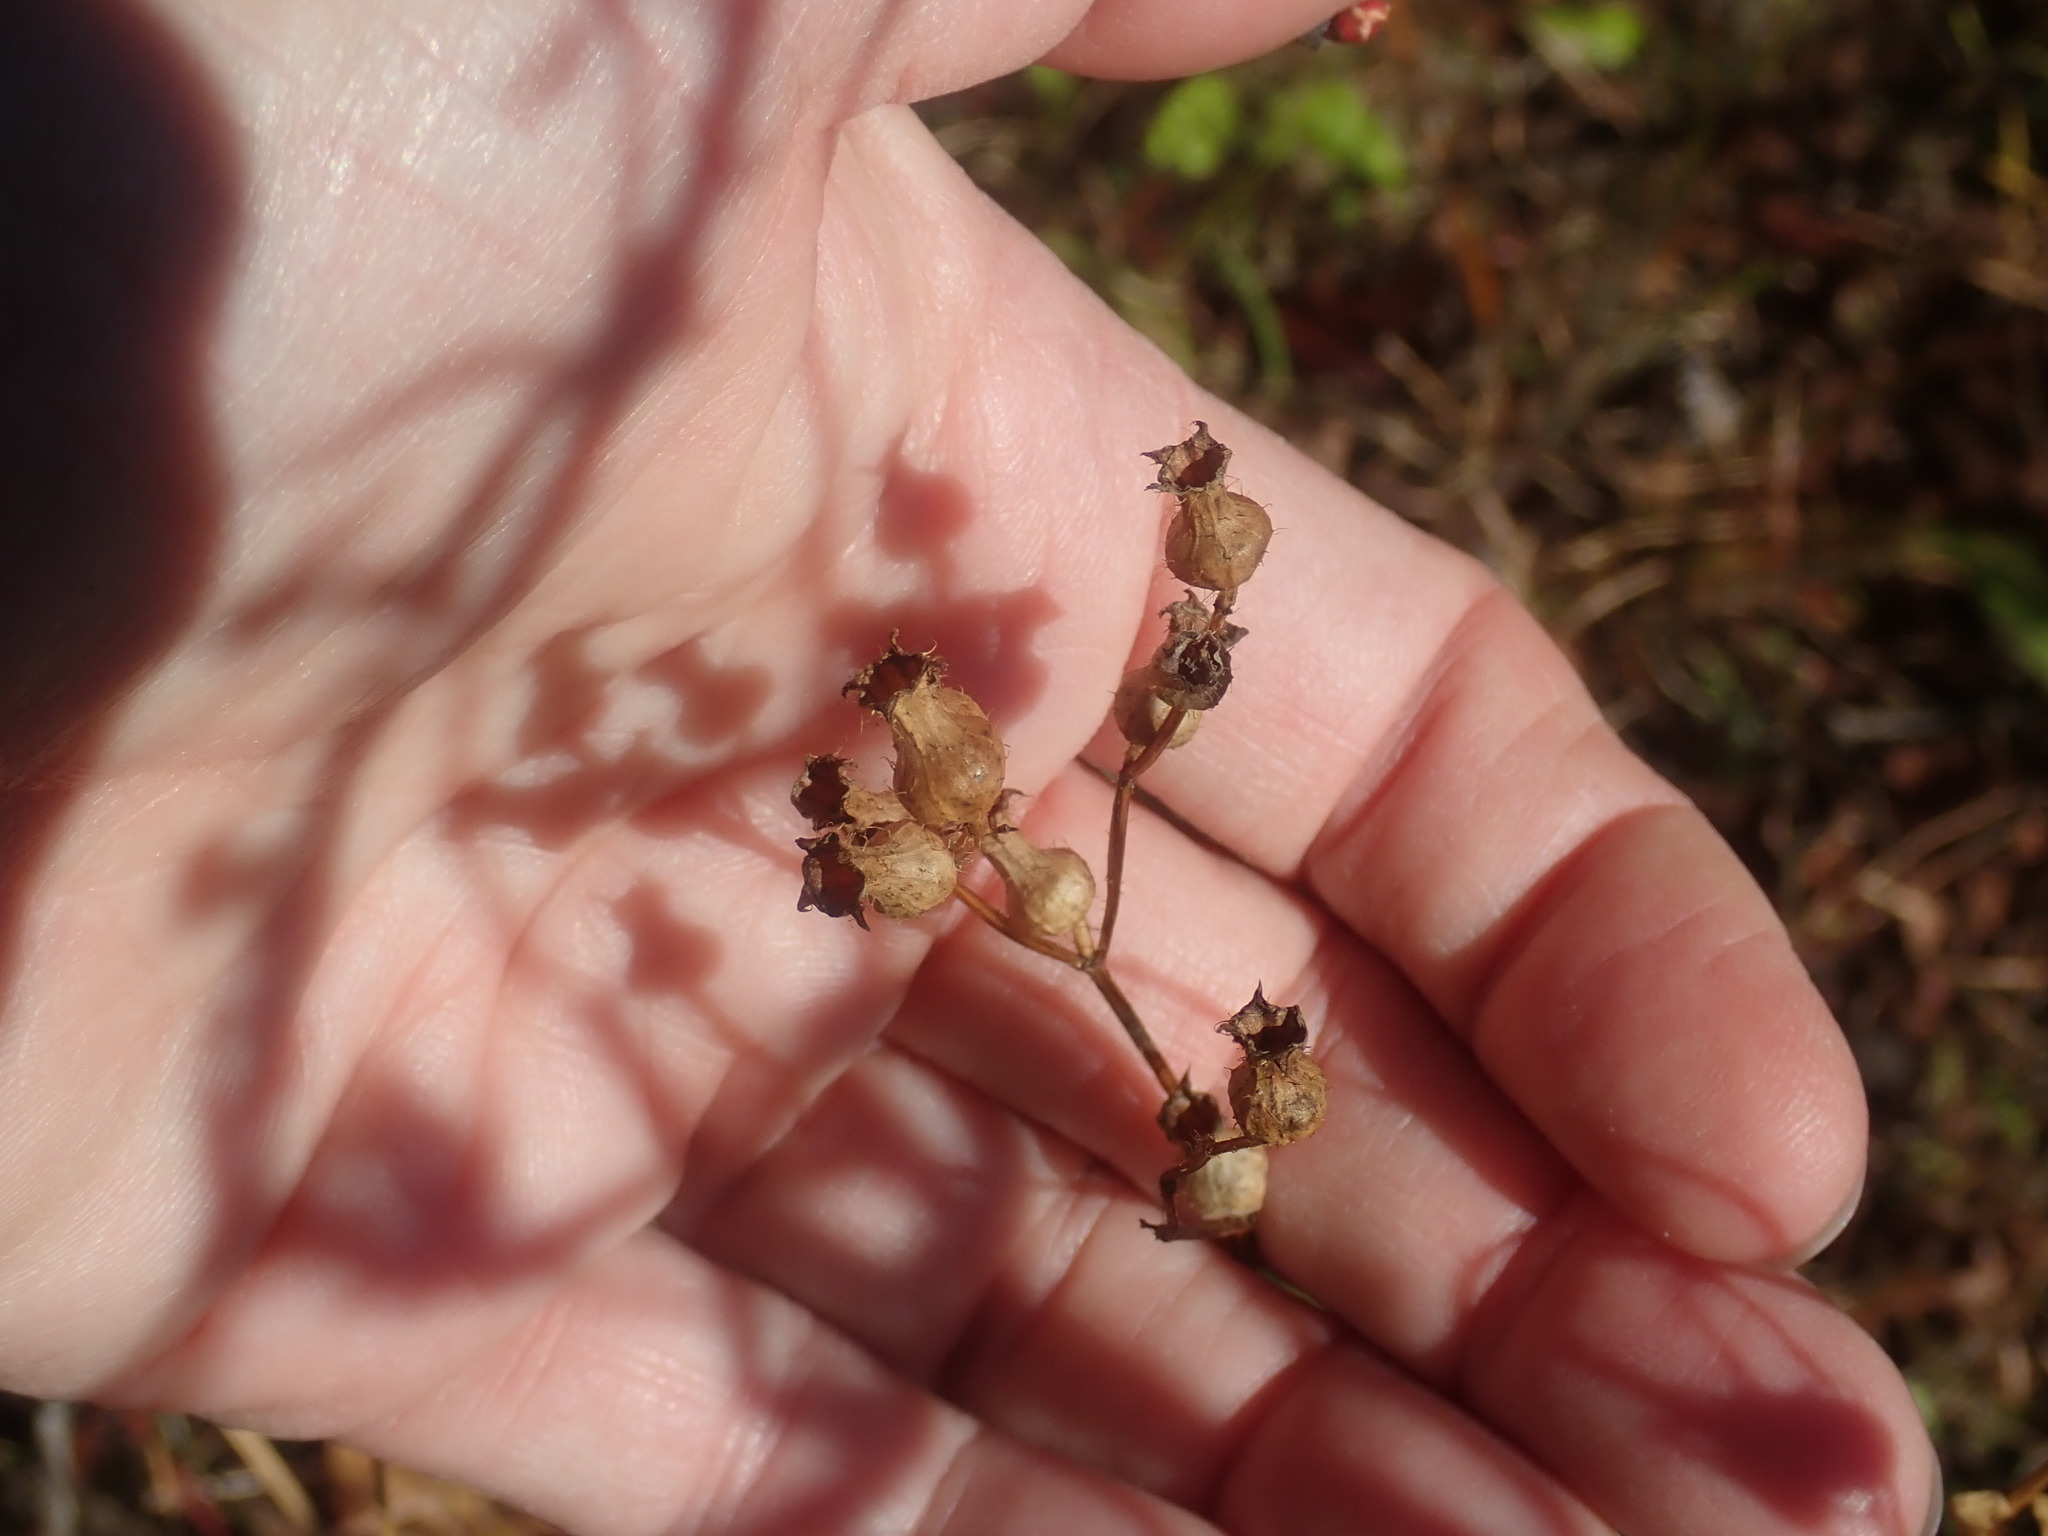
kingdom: Plantae
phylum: Tracheophyta
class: Magnoliopsida
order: Myrtales
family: Melastomataceae
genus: Rhexia
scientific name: Rhexia virginica
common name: Common meadow beauty
